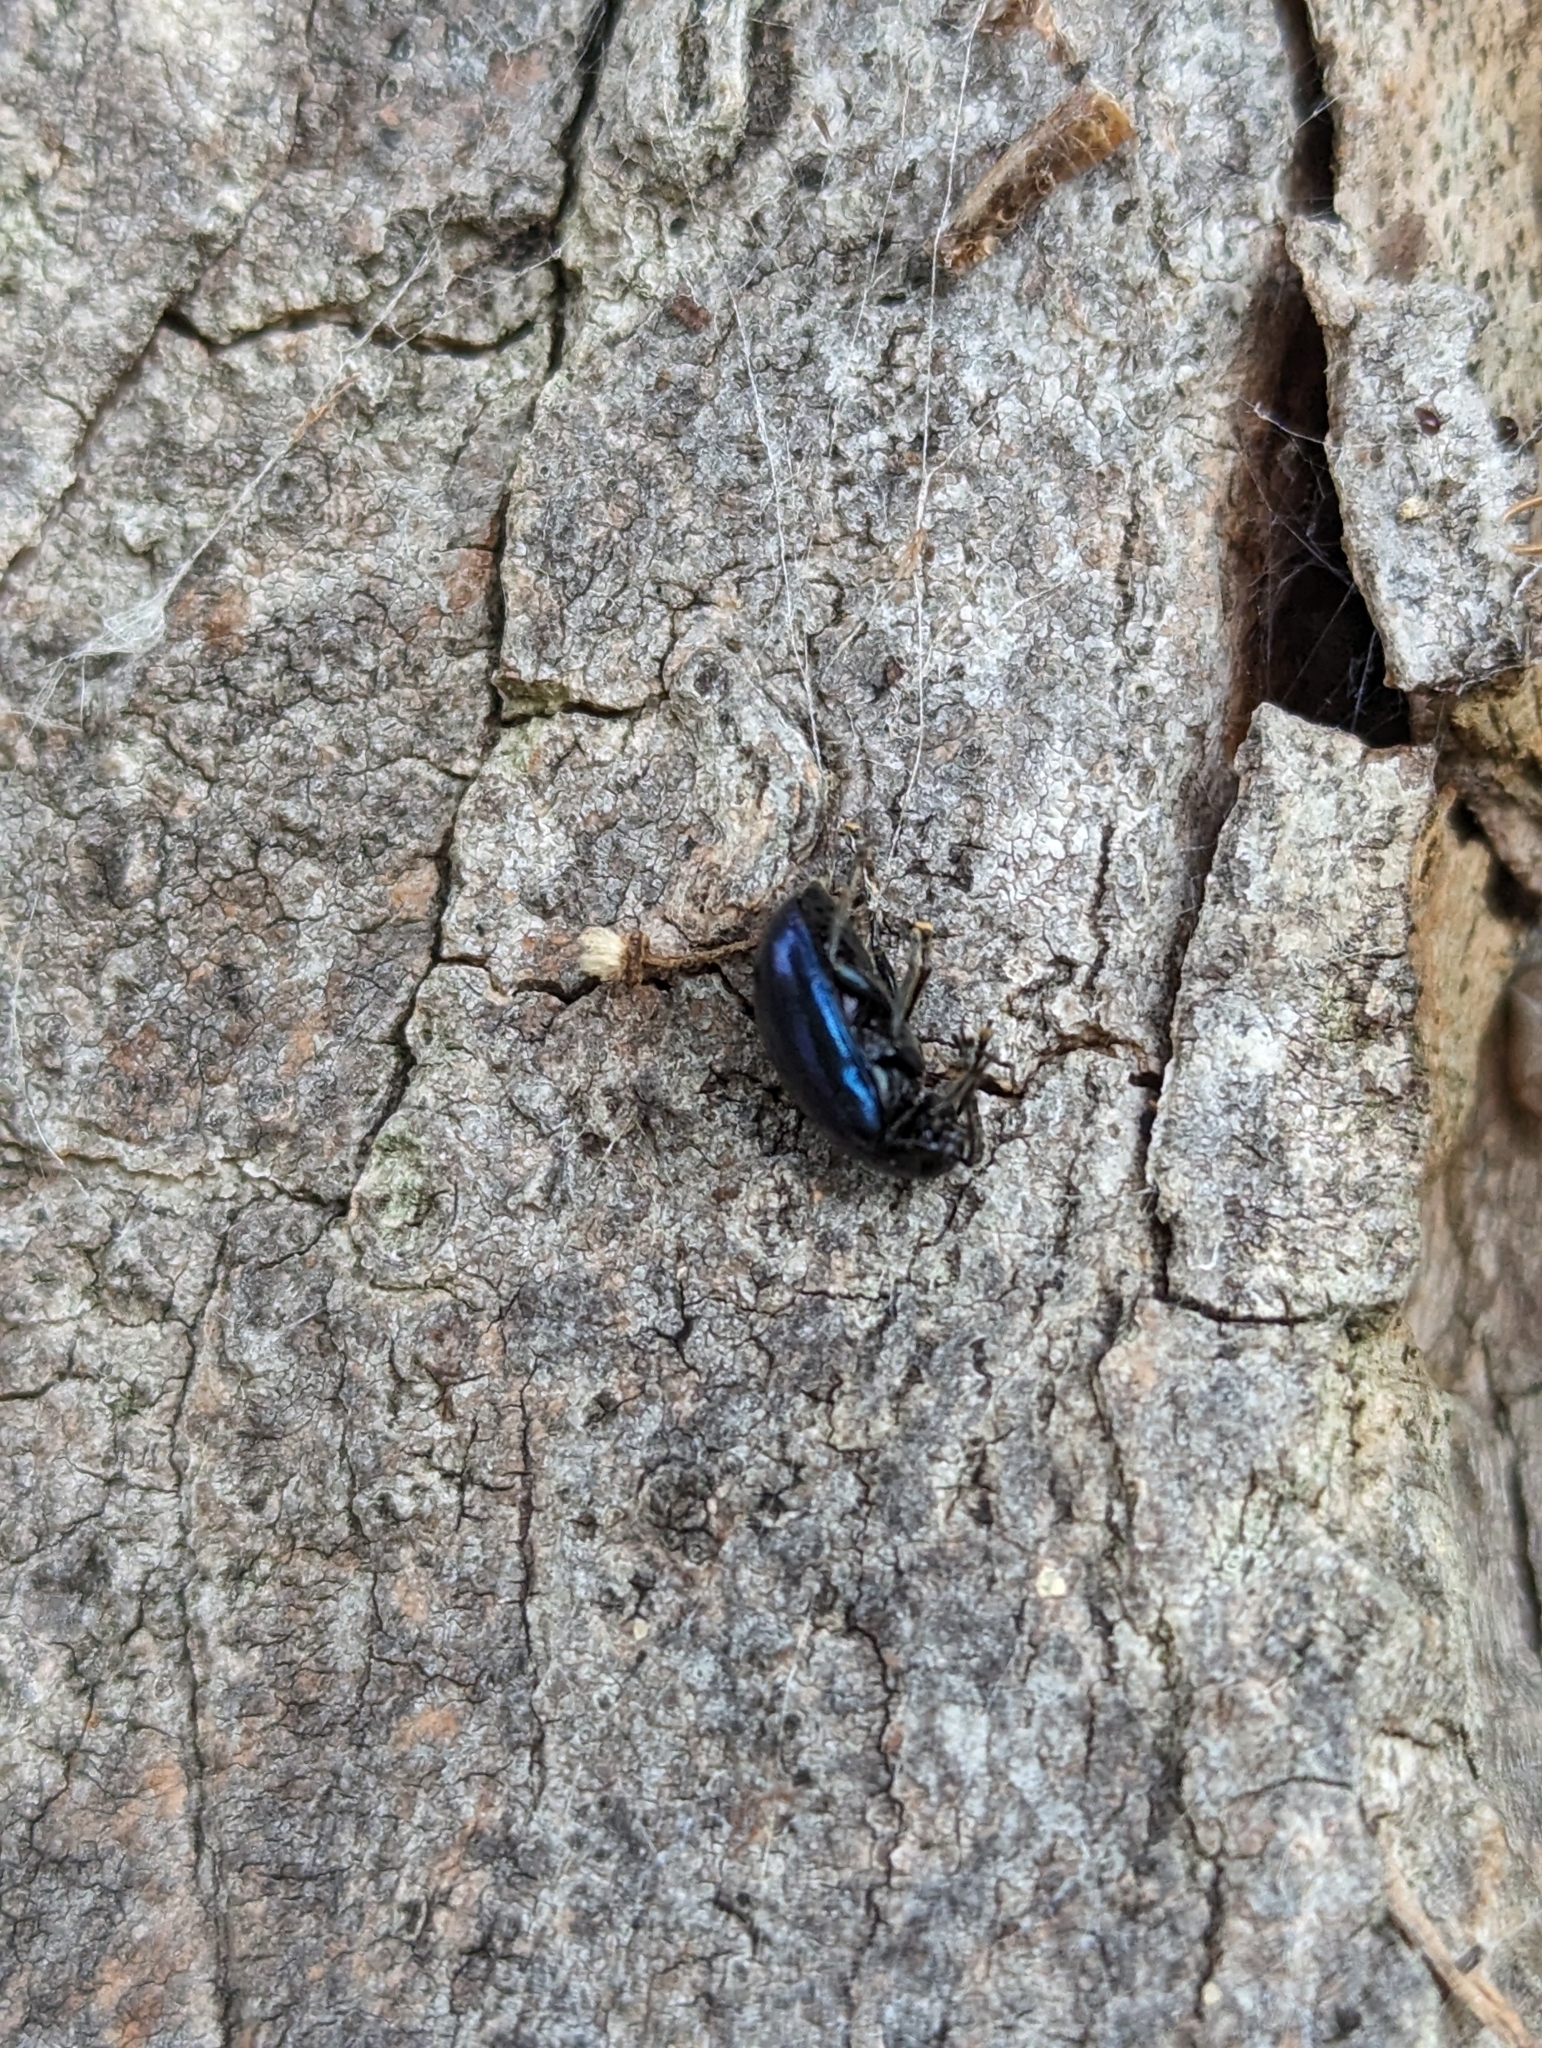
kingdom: Animalia
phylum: Arthropoda
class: Insecta
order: Coleoptera
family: Chrysomelidae
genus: Agelastica
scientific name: Agelastica alni
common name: Alder leaf beetle
